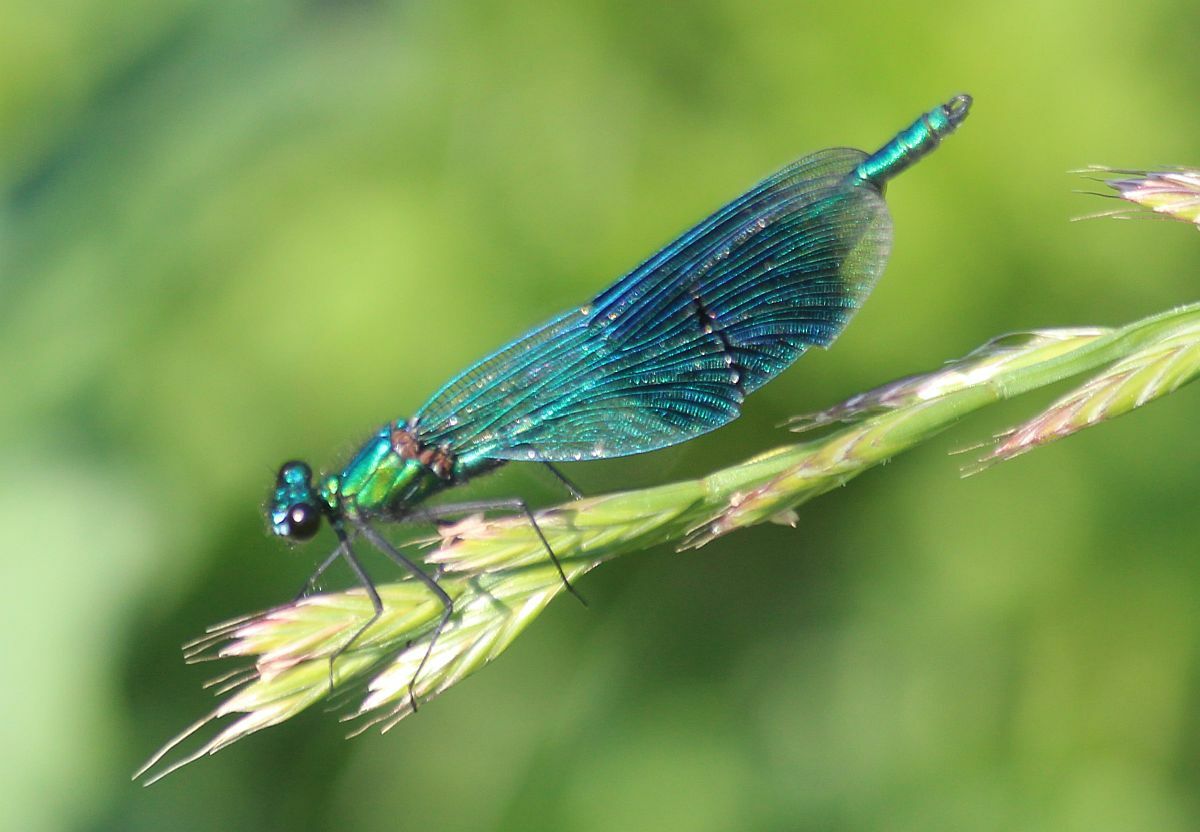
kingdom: Animalia
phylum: Arthropoda
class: Insecta
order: Odonata
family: Calopterygidae
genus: Calopteryx
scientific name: Calopteryx splendens
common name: Banded demoiselle
